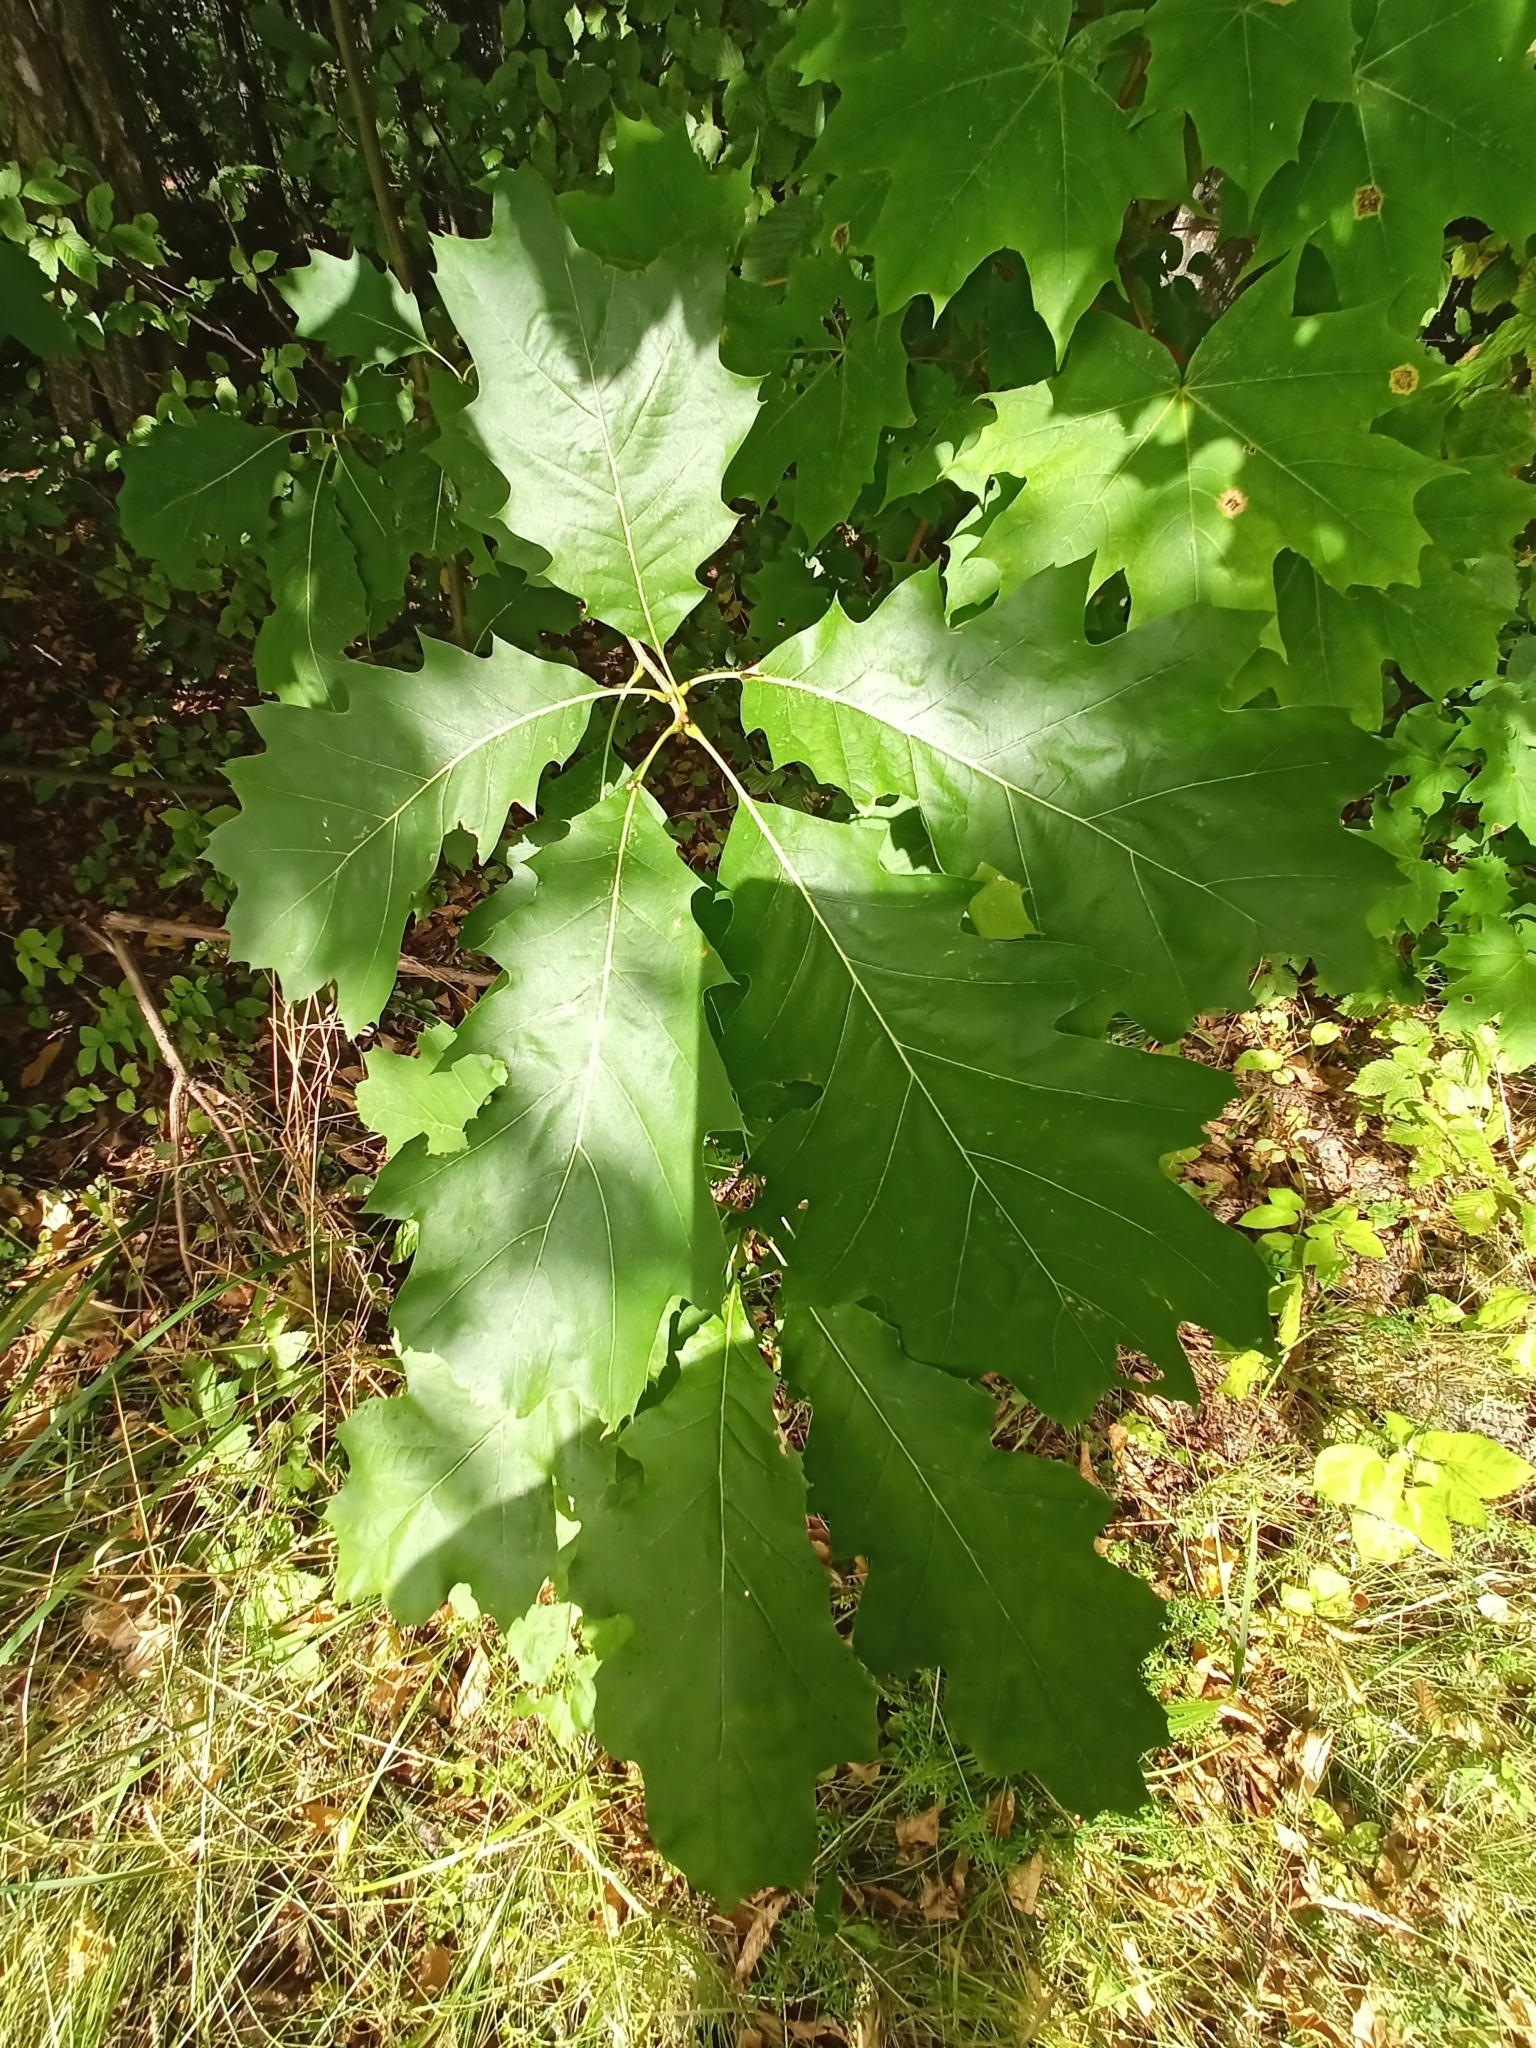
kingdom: Plantae
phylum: Tracheophyta
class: Magnoliopsida
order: Fagales
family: Fagaceae
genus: Quercus
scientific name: Quercus rubra
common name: Red oak
